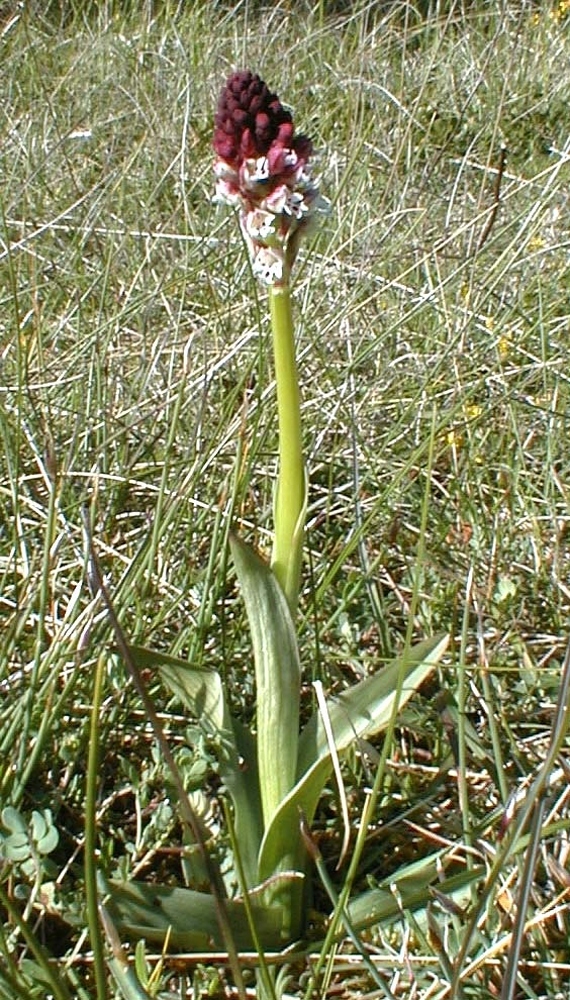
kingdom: Plantae
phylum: Tracheophyta
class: Liliopsida
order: Asparagales
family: Orchidaceae
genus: Neotinea
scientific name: Neotinea ustulata
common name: Burnt orchid
